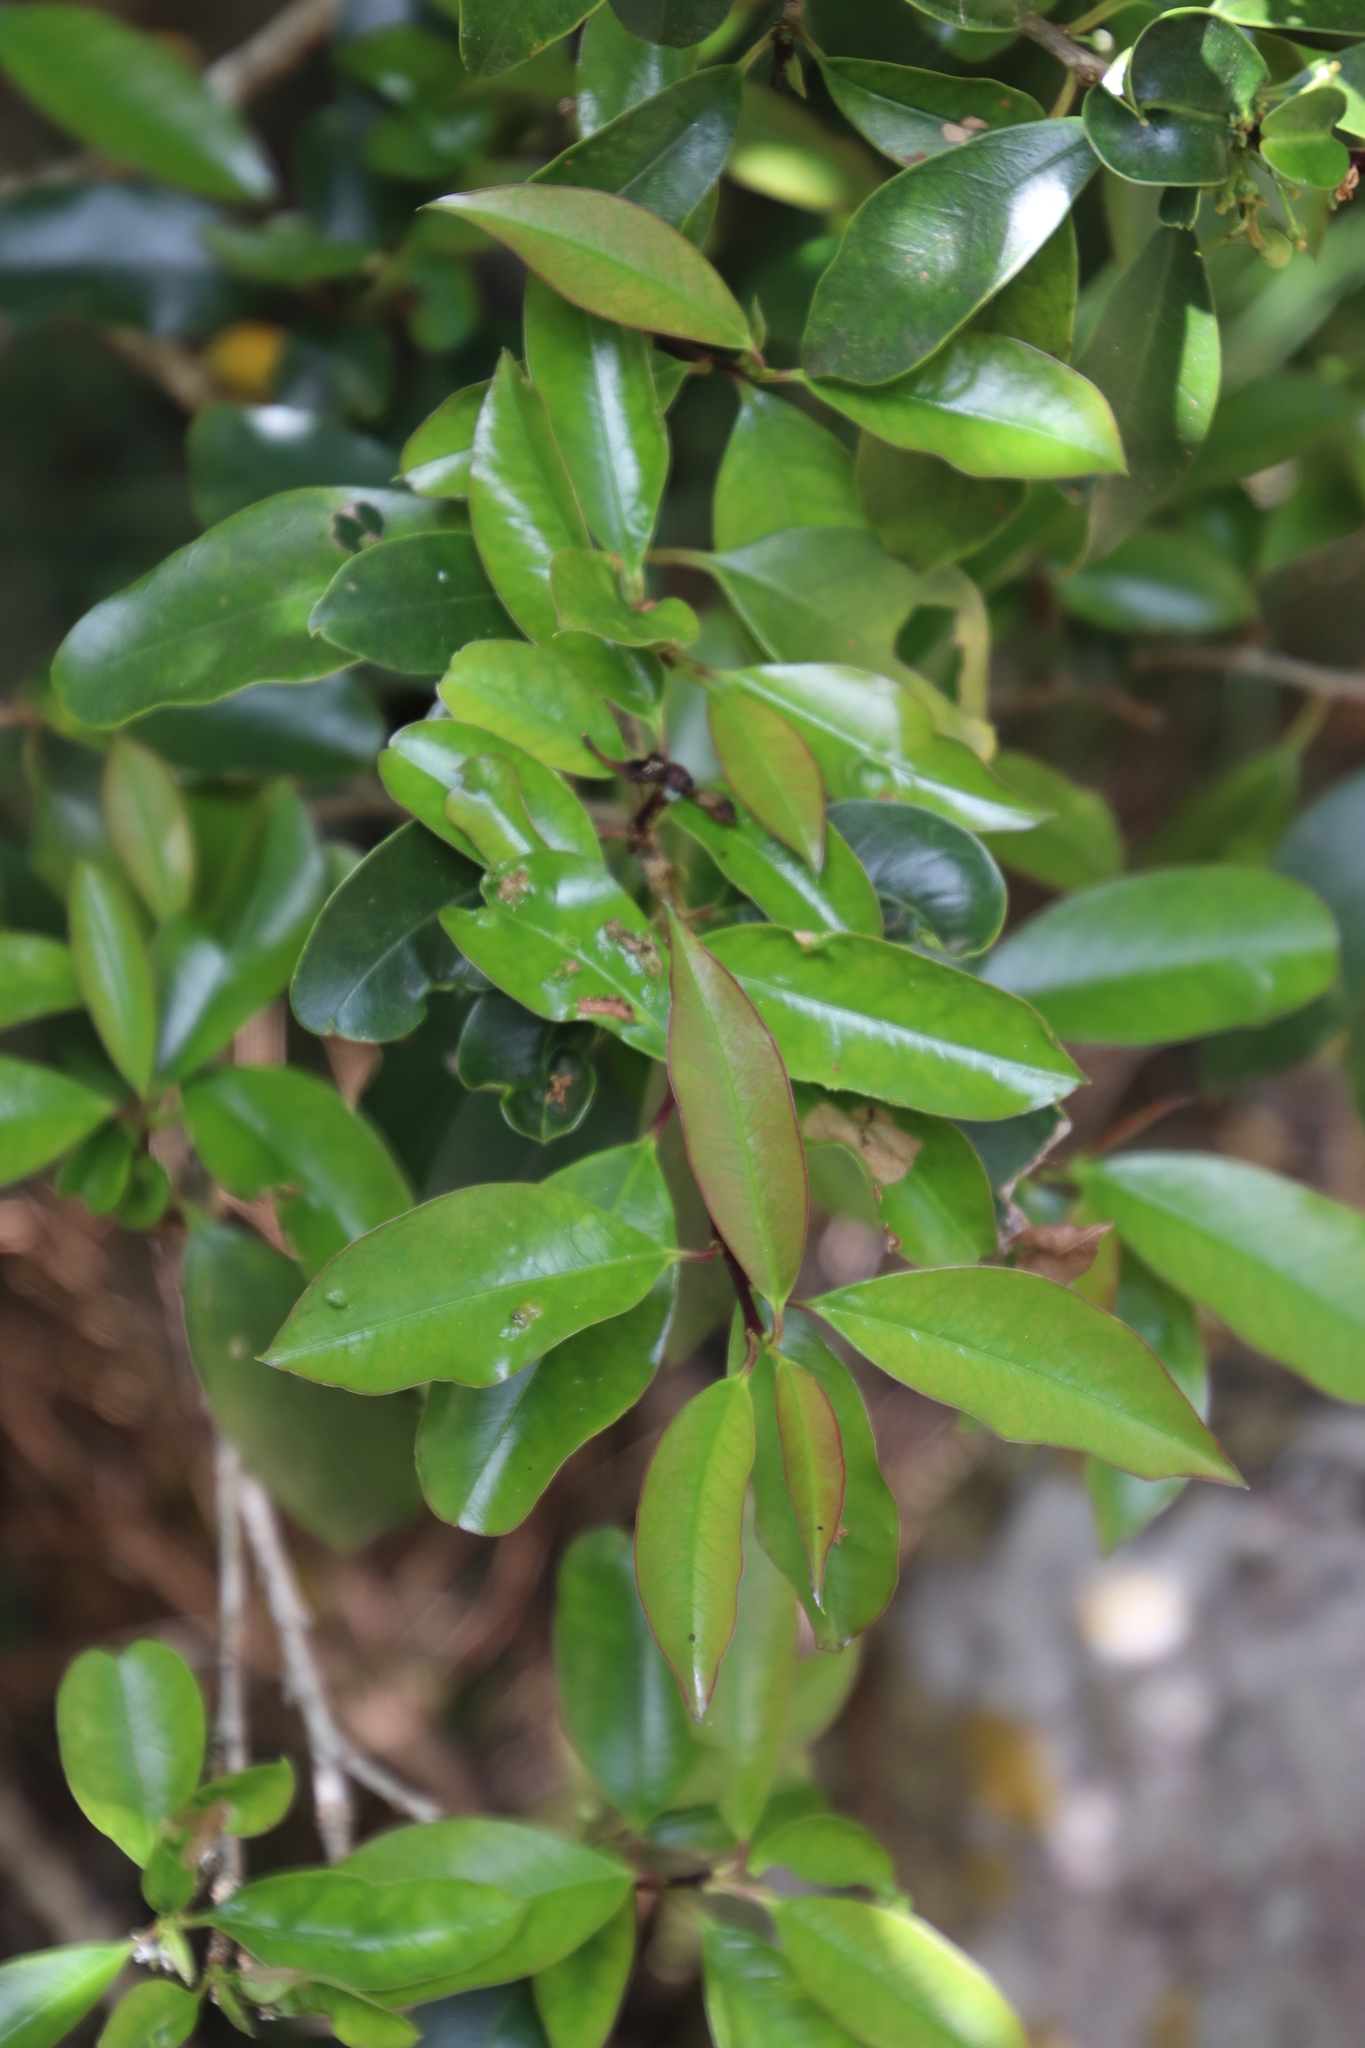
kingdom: Plantae
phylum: Tracheophyta
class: Magnoliopsida
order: Aquifoliales
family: Aquifoliaceae
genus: Ilex
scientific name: Ilex mitis
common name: African holly
